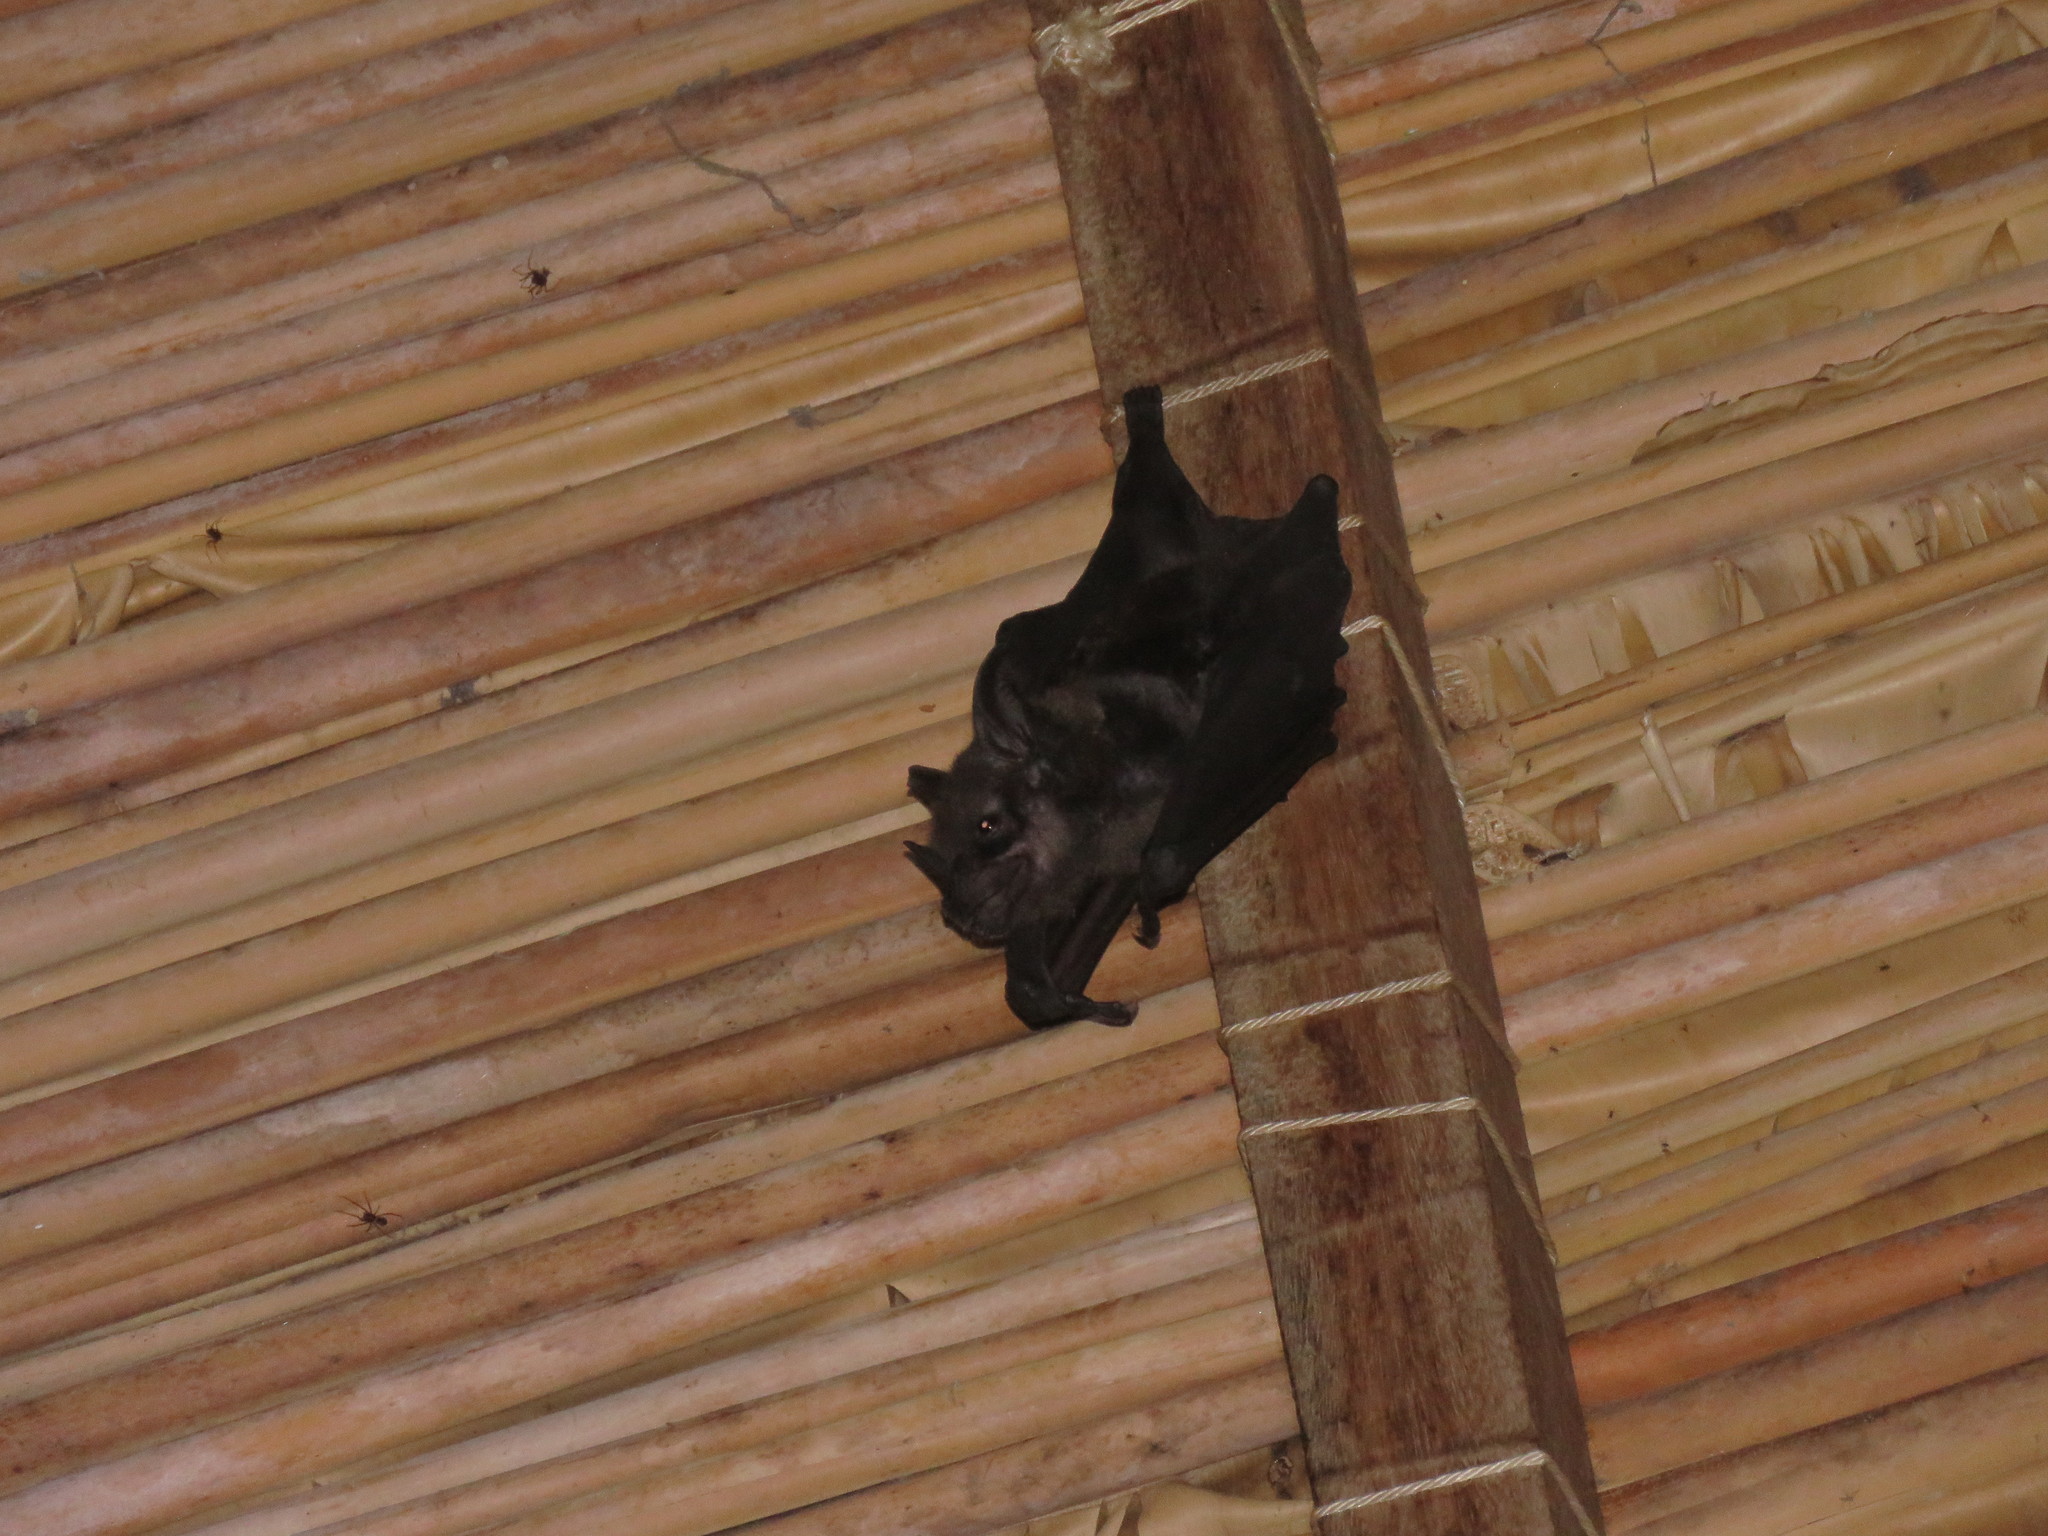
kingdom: Animalia
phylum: Chordata
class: Mammalia
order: Chiroptera
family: Phyllostomidae
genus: Phyllostomus
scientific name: Phyllostomus hastatus
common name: Greater spear-nosed bat
